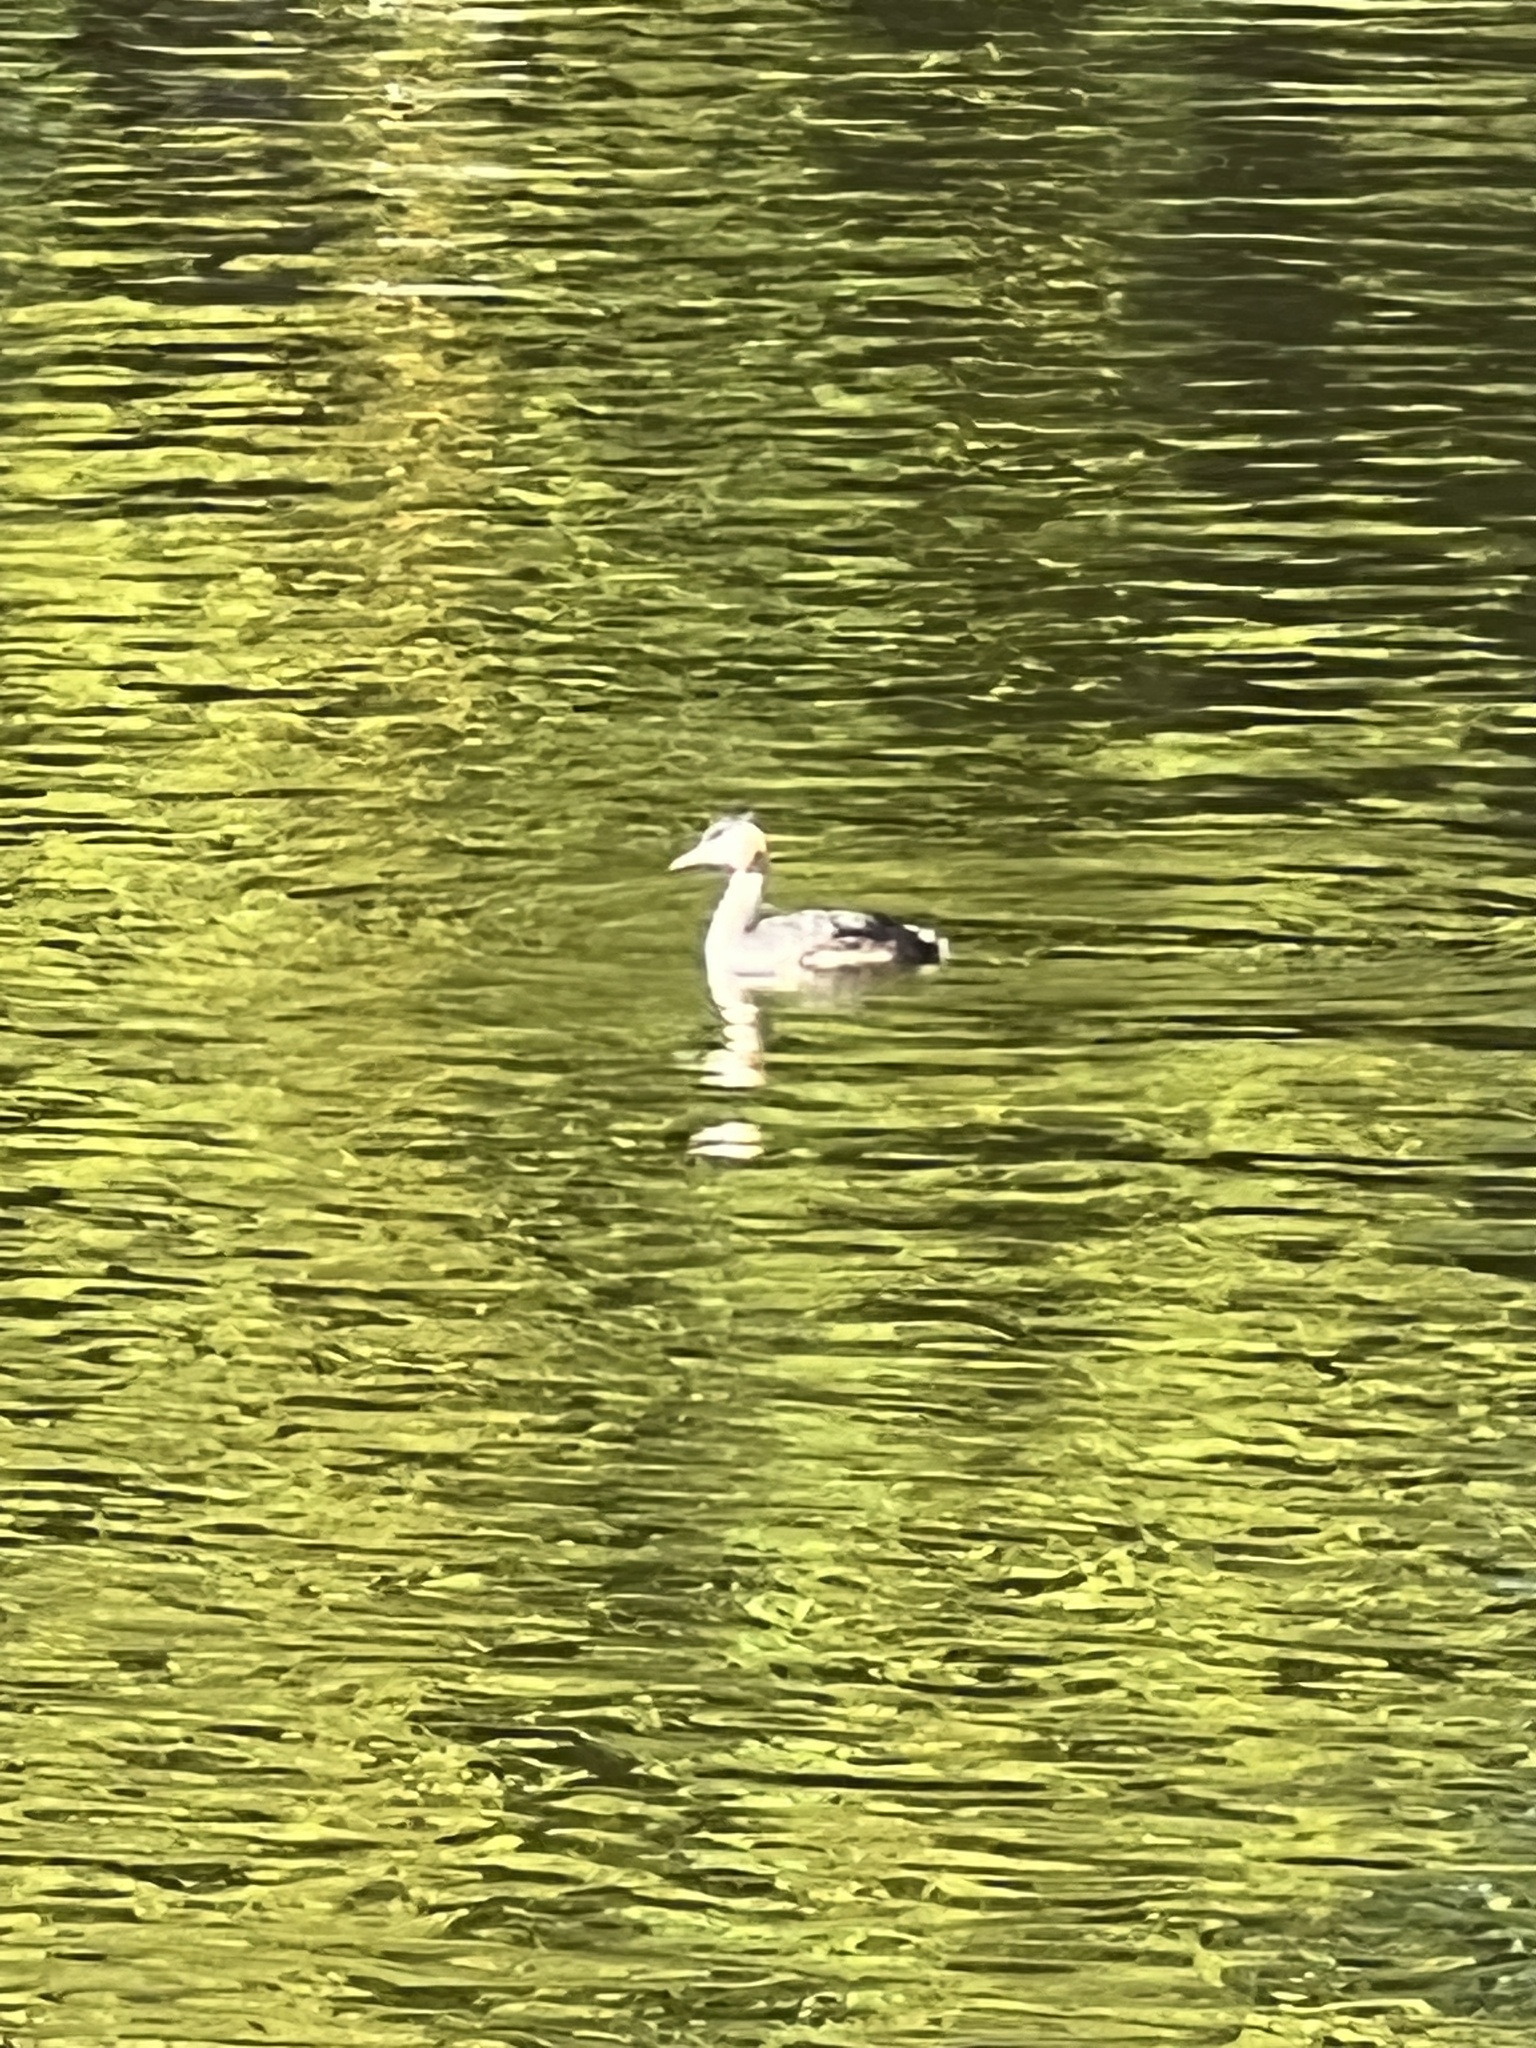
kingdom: Animalia
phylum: Chordata
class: Aves
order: Podicipediformes
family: Podicipedidae
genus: Podiceps
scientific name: Podiceps cristatus
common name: Great crested grebe
